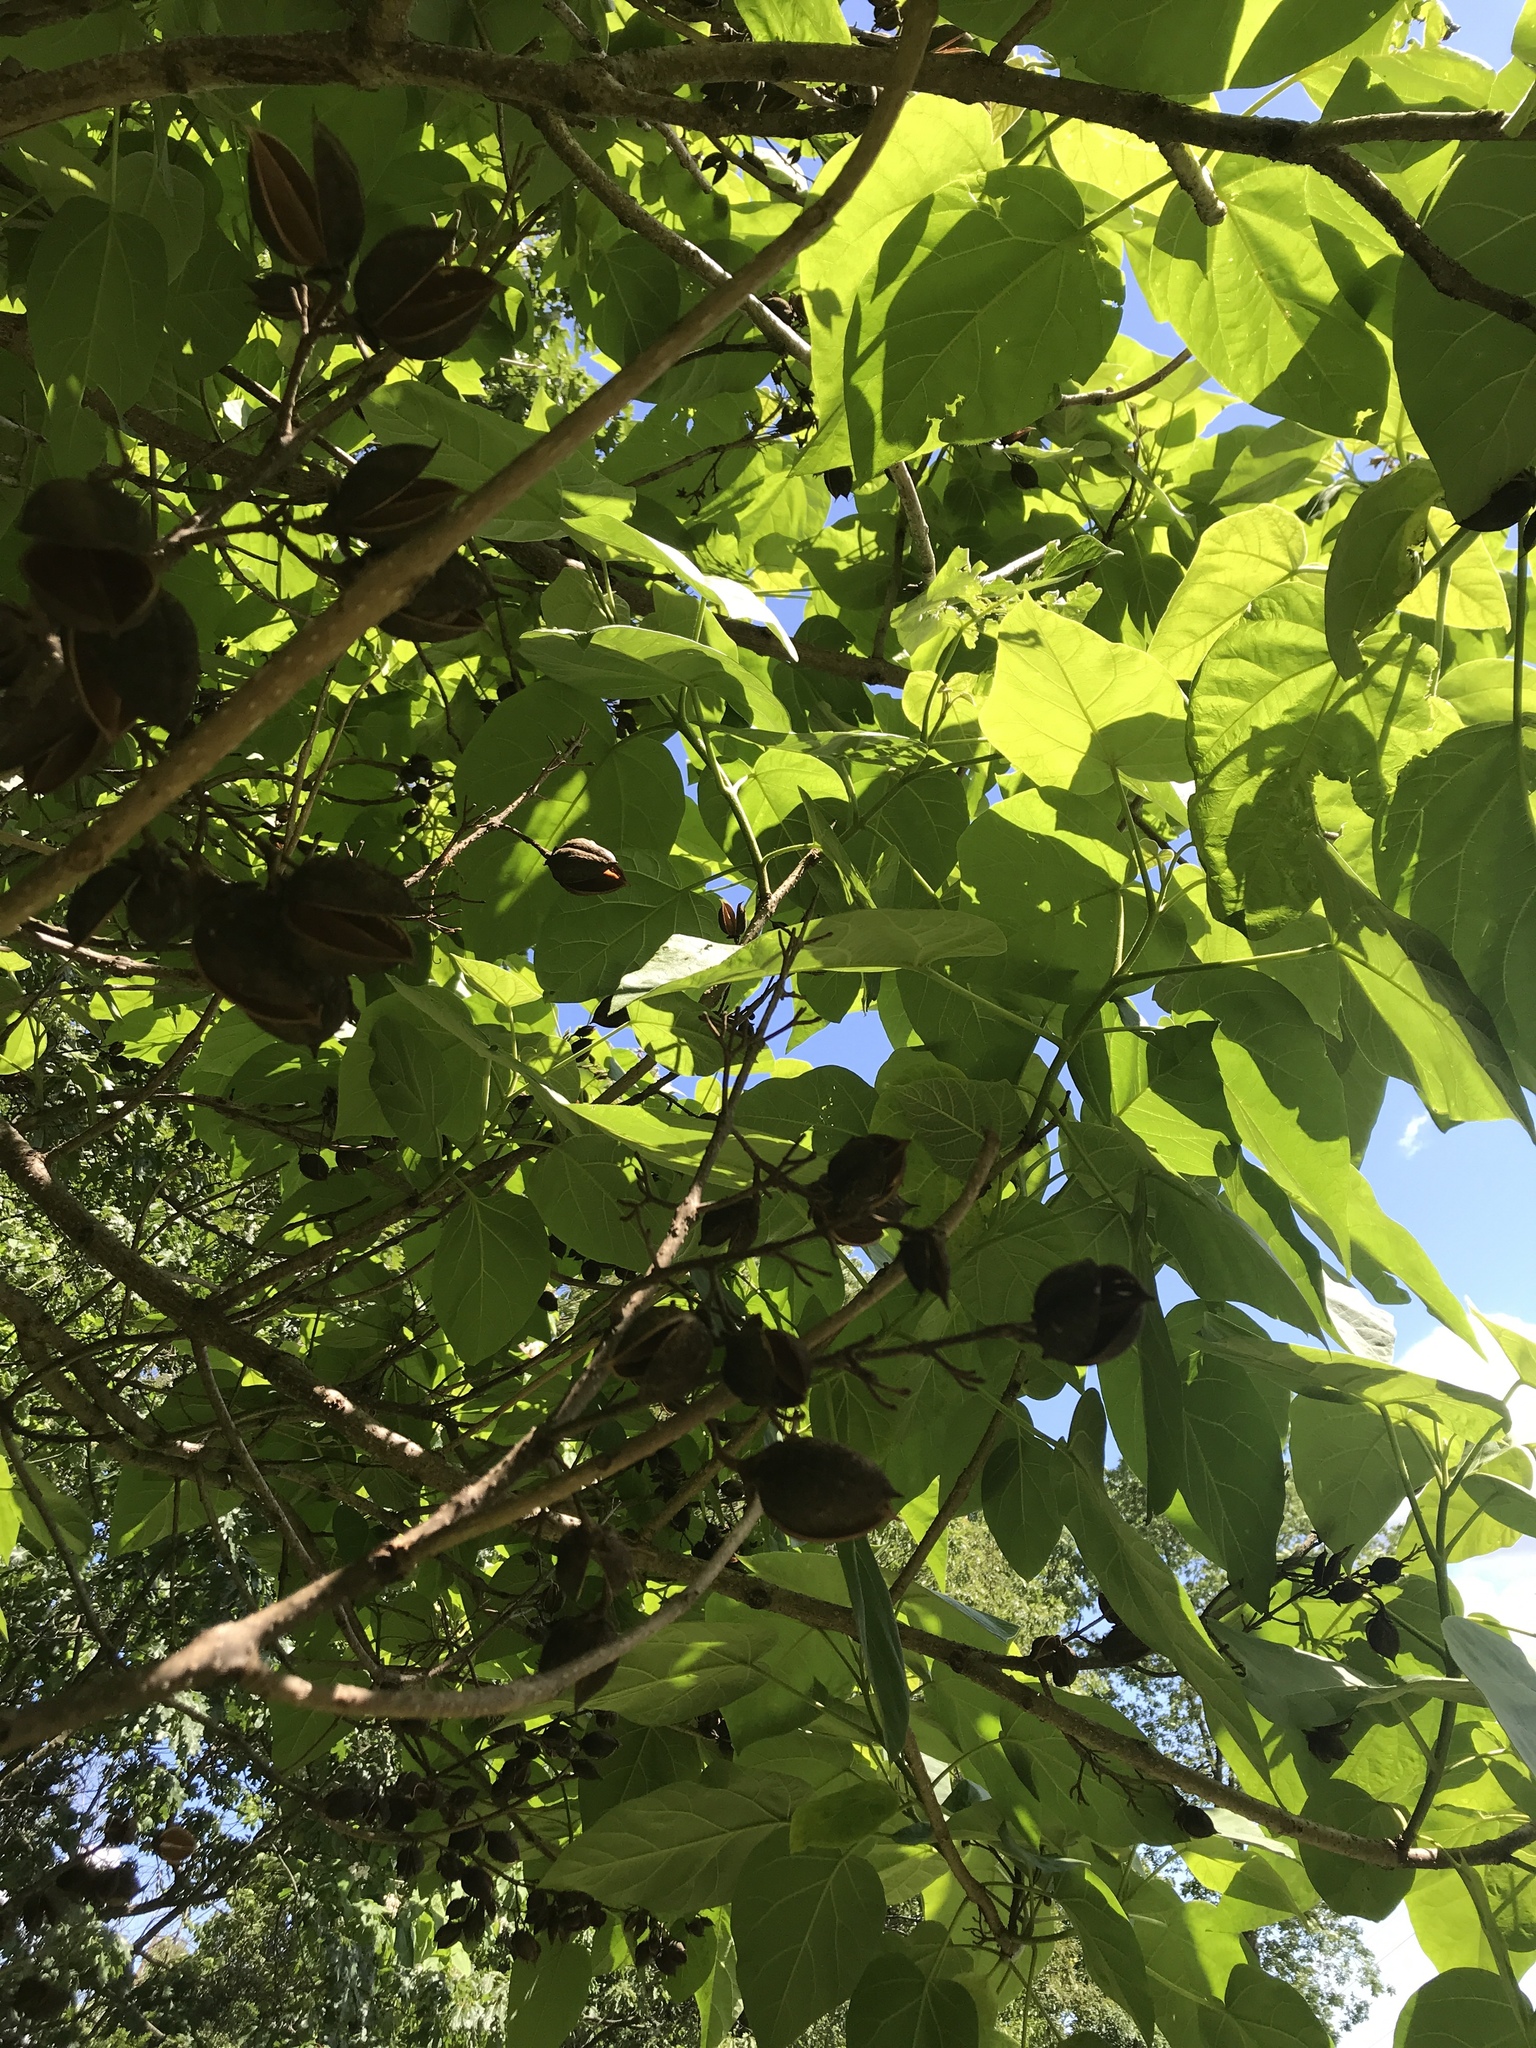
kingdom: Plantae
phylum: Tracheophyta
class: Magnoliopsida
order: Lamiales
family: Paulowniaceae
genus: Paulownia
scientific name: Paulownia tomentosa
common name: Foxglove-tree
